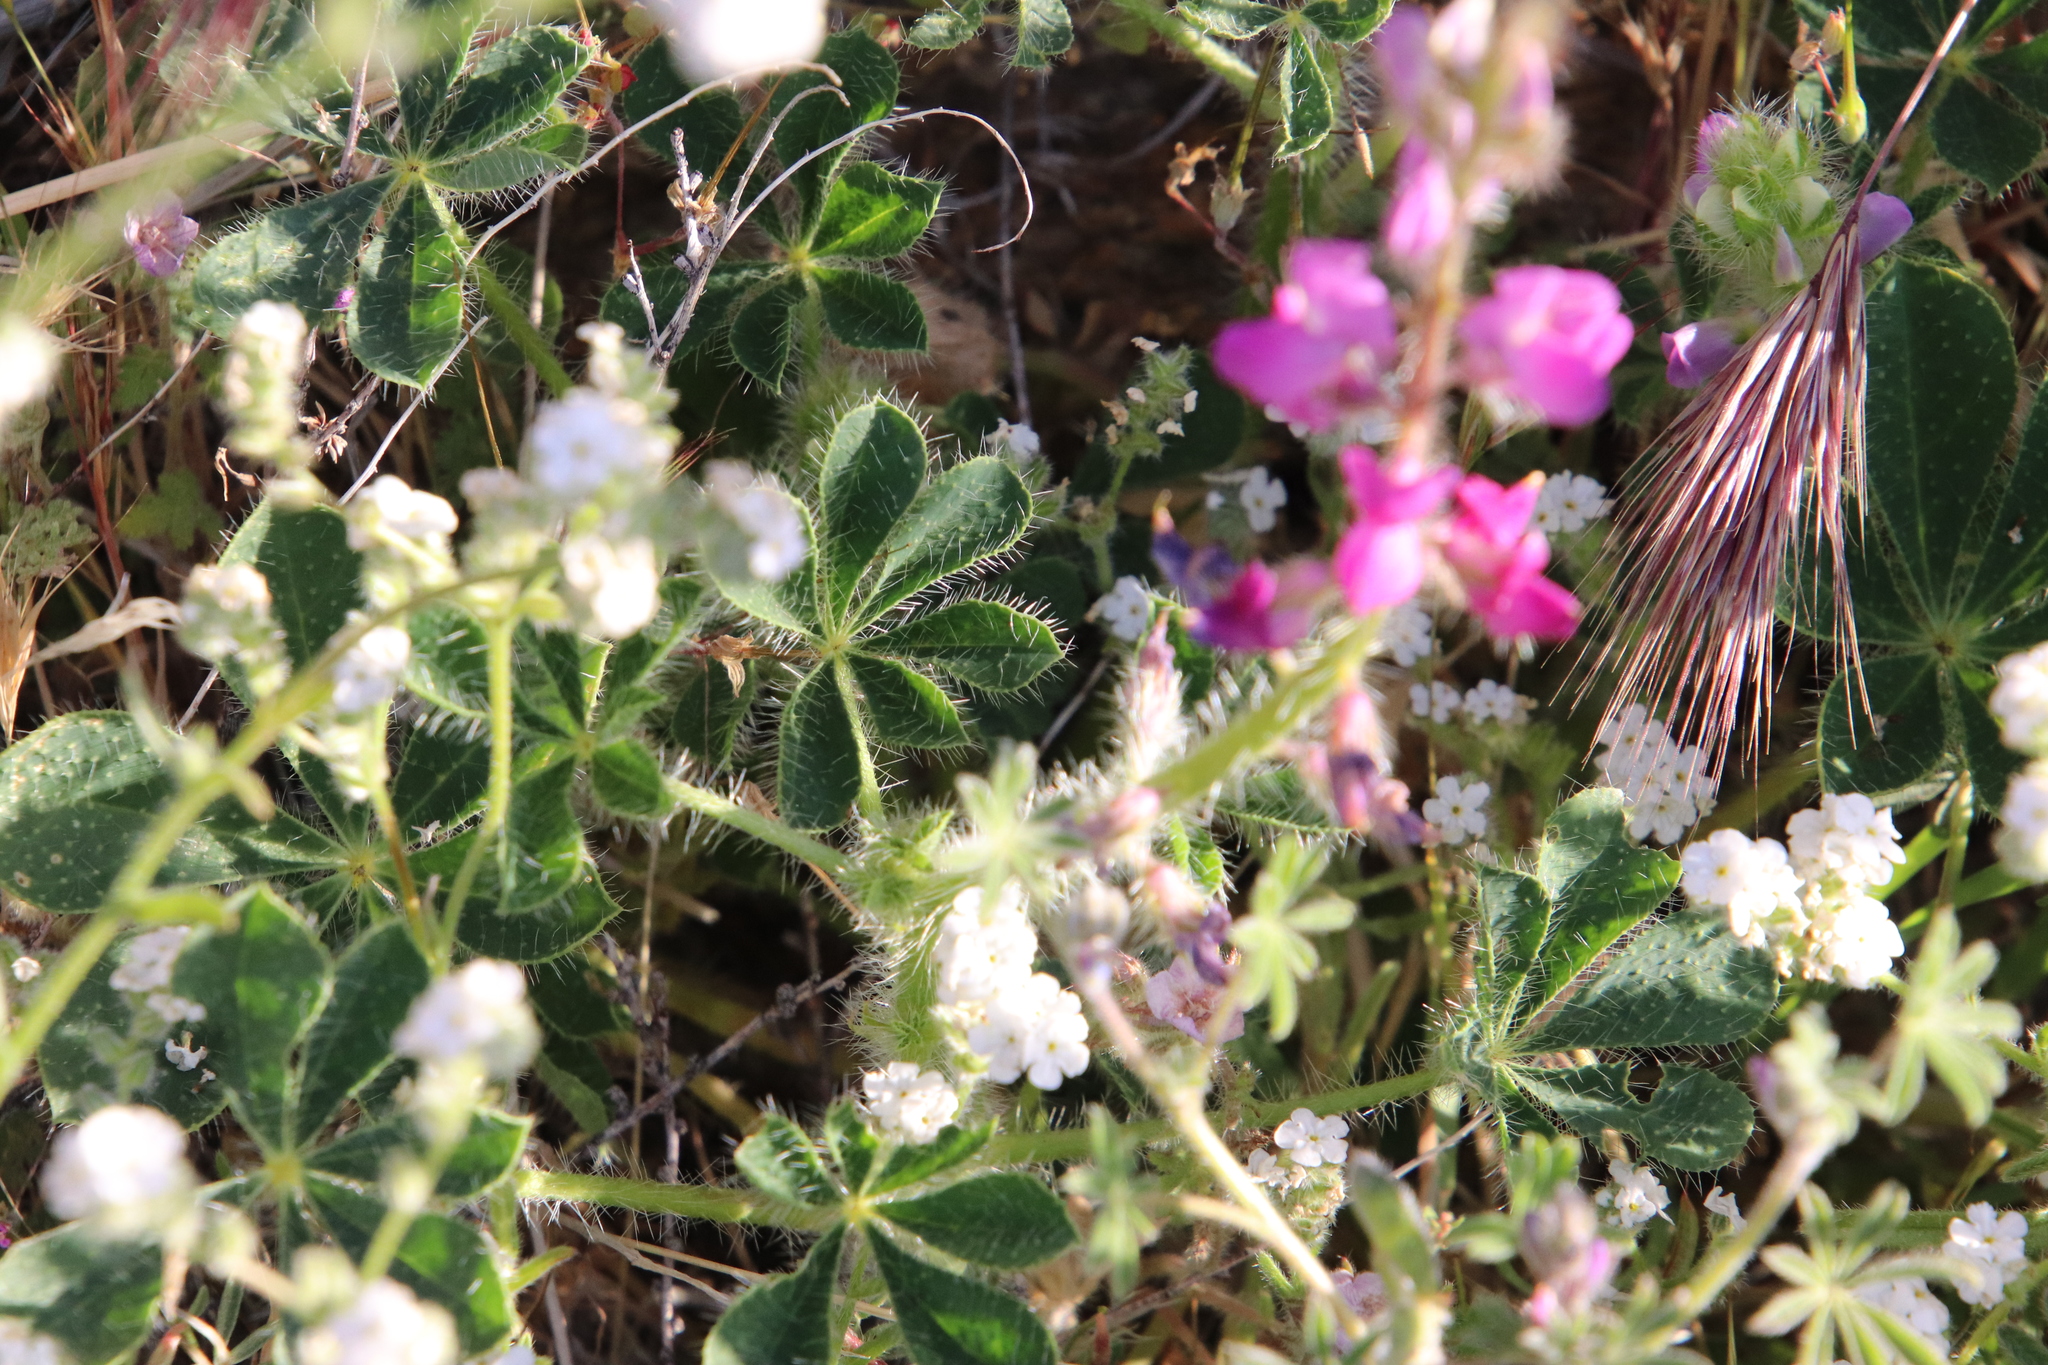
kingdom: Plantae
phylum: Tracheophyta
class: Magnoliopsida
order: Fabales
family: Fabaceae
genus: Lupinus
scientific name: Lupinus hirsutissimus
